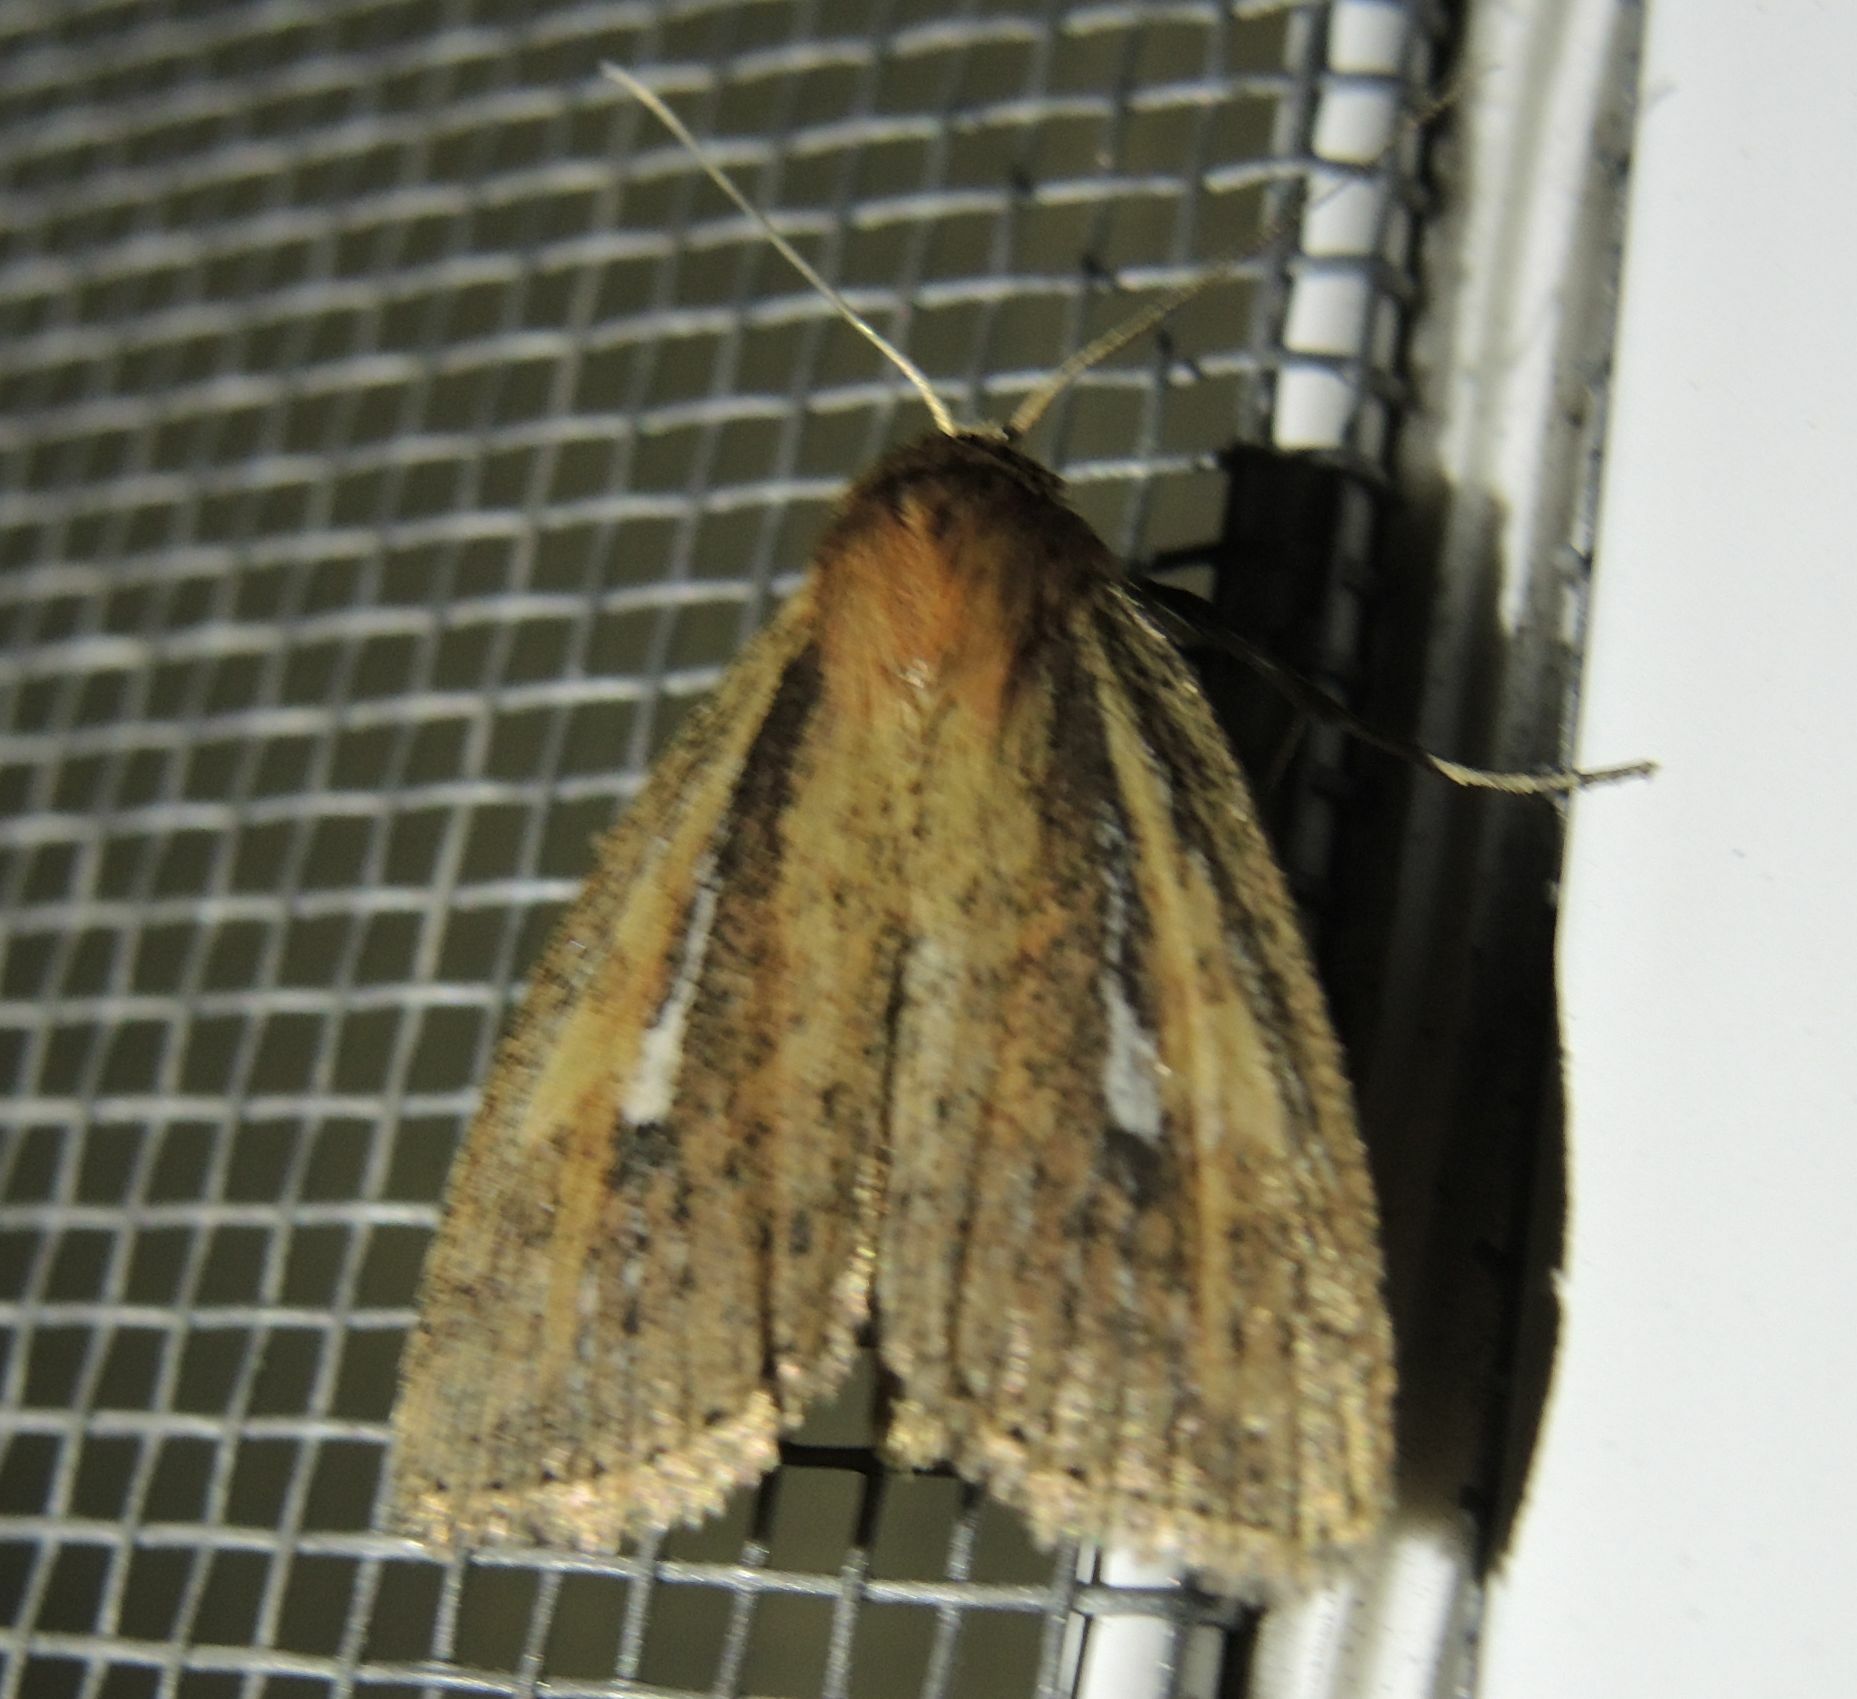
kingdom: Animalia
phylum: Arthropoda
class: Insecta
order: Lepidoptera
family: Noctuidae
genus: Archanara
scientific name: Archanara dissoluta
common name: Brown-veined wainscot
